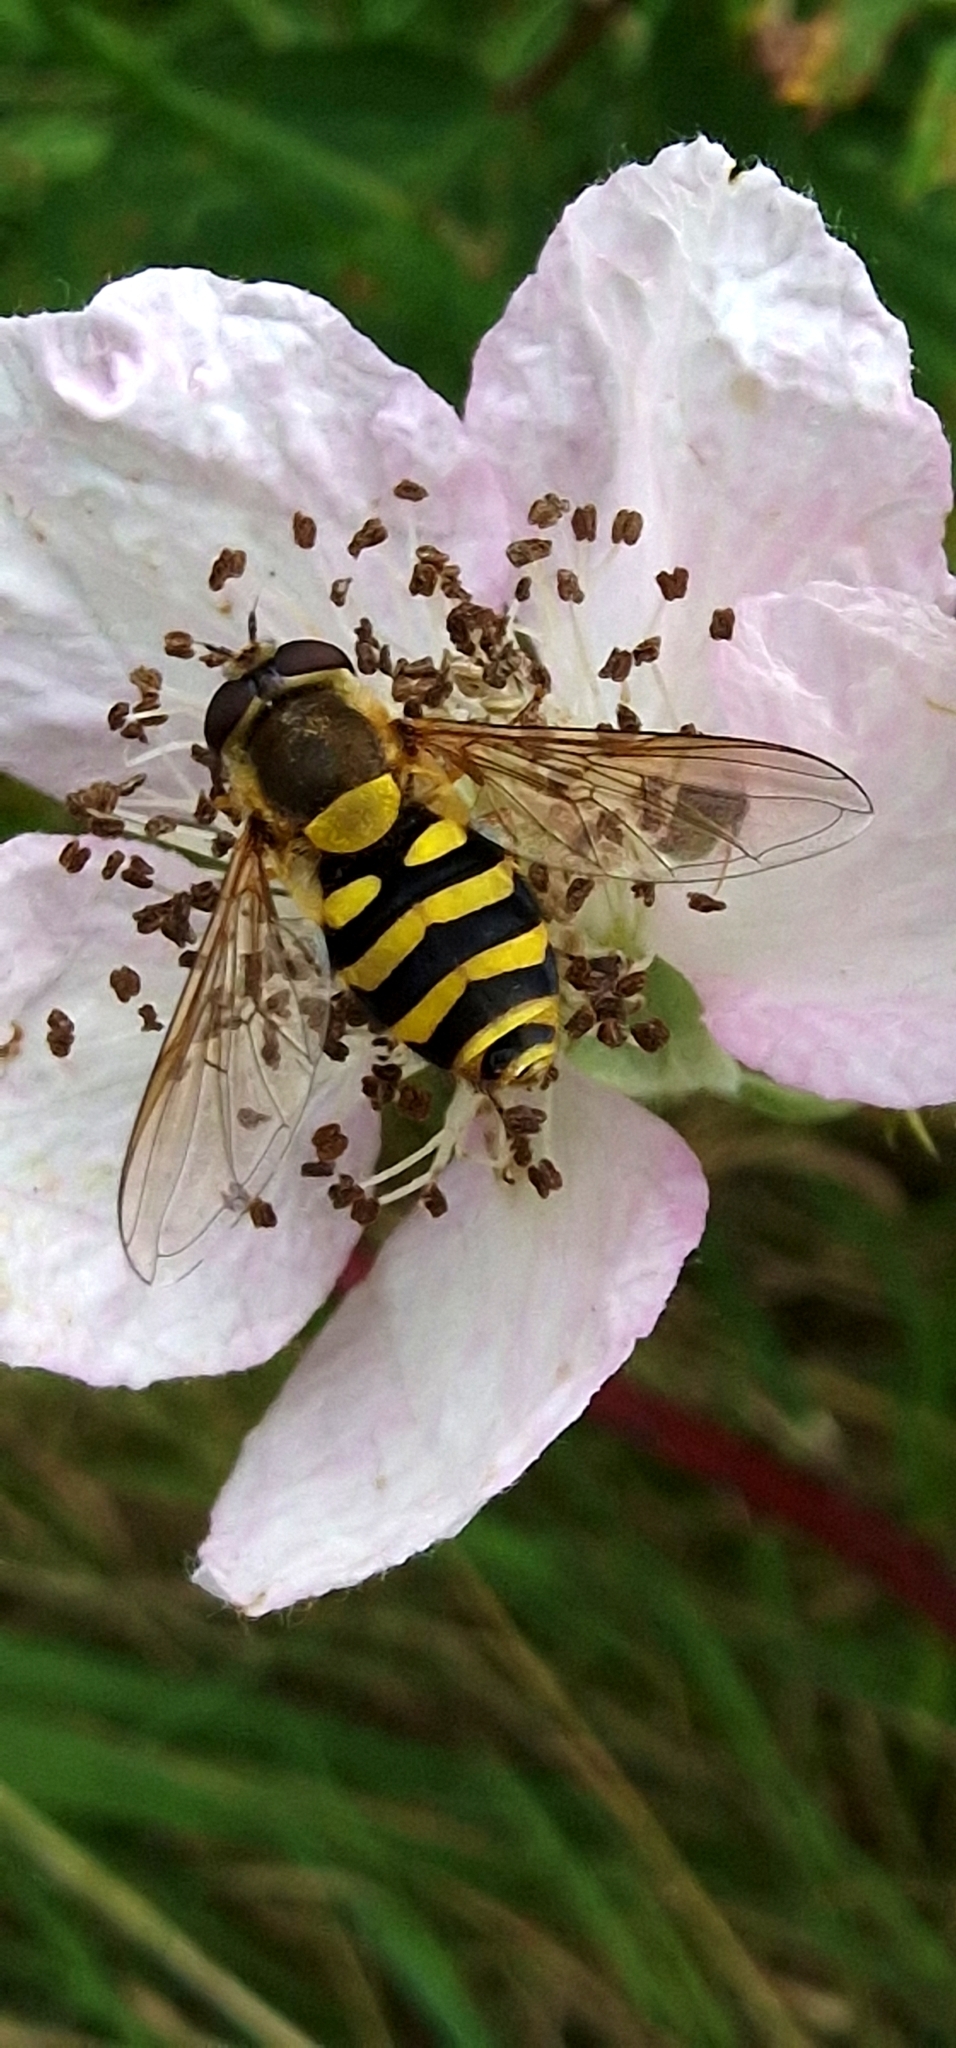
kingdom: Animalia
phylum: Arthropoda
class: Insecta
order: Diptera
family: Syrphidae
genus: Syrphus
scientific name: Syrphus
